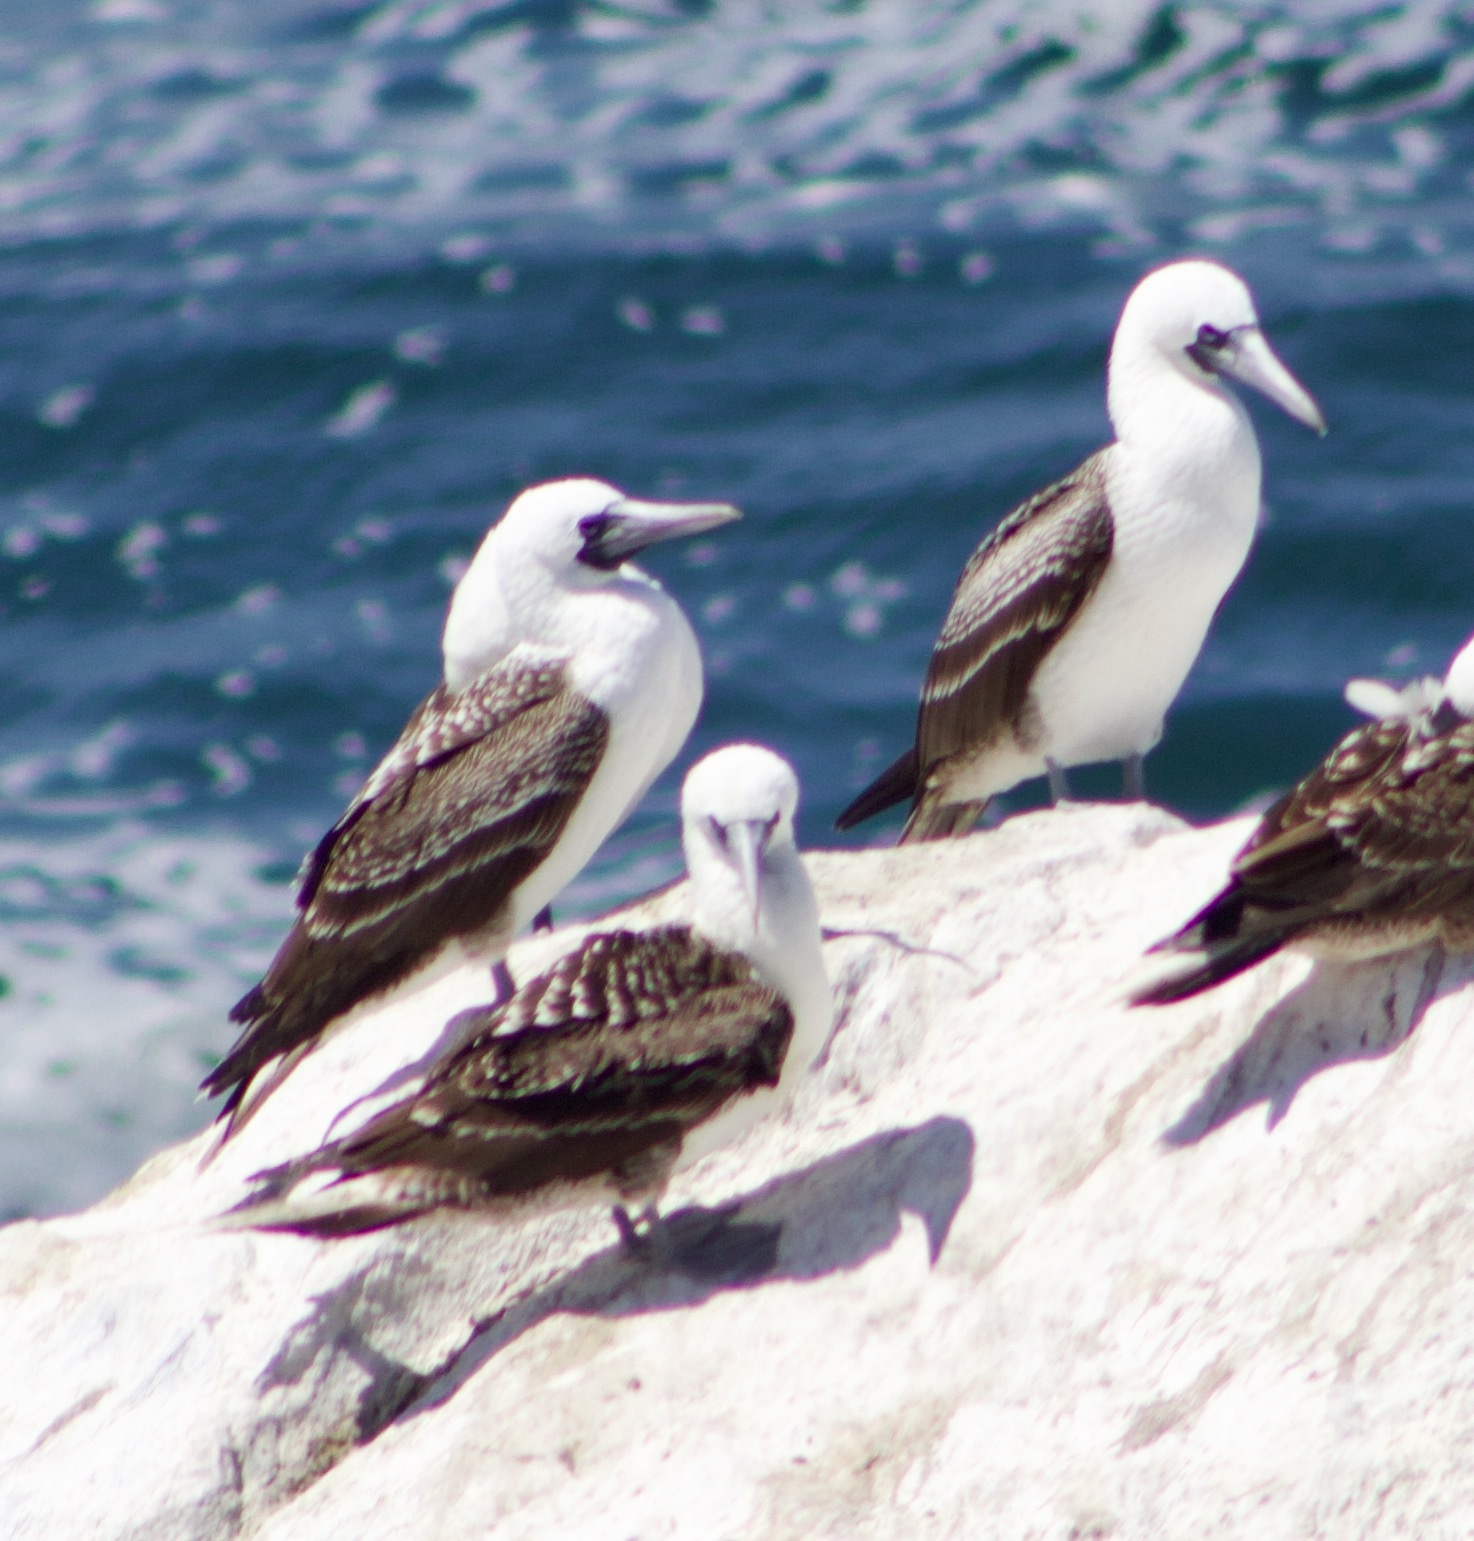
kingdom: Animalia
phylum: Chordata
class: Aves
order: Suliformes
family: Sulidae
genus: Sula
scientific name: Sula variegata
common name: Peruvian booby
